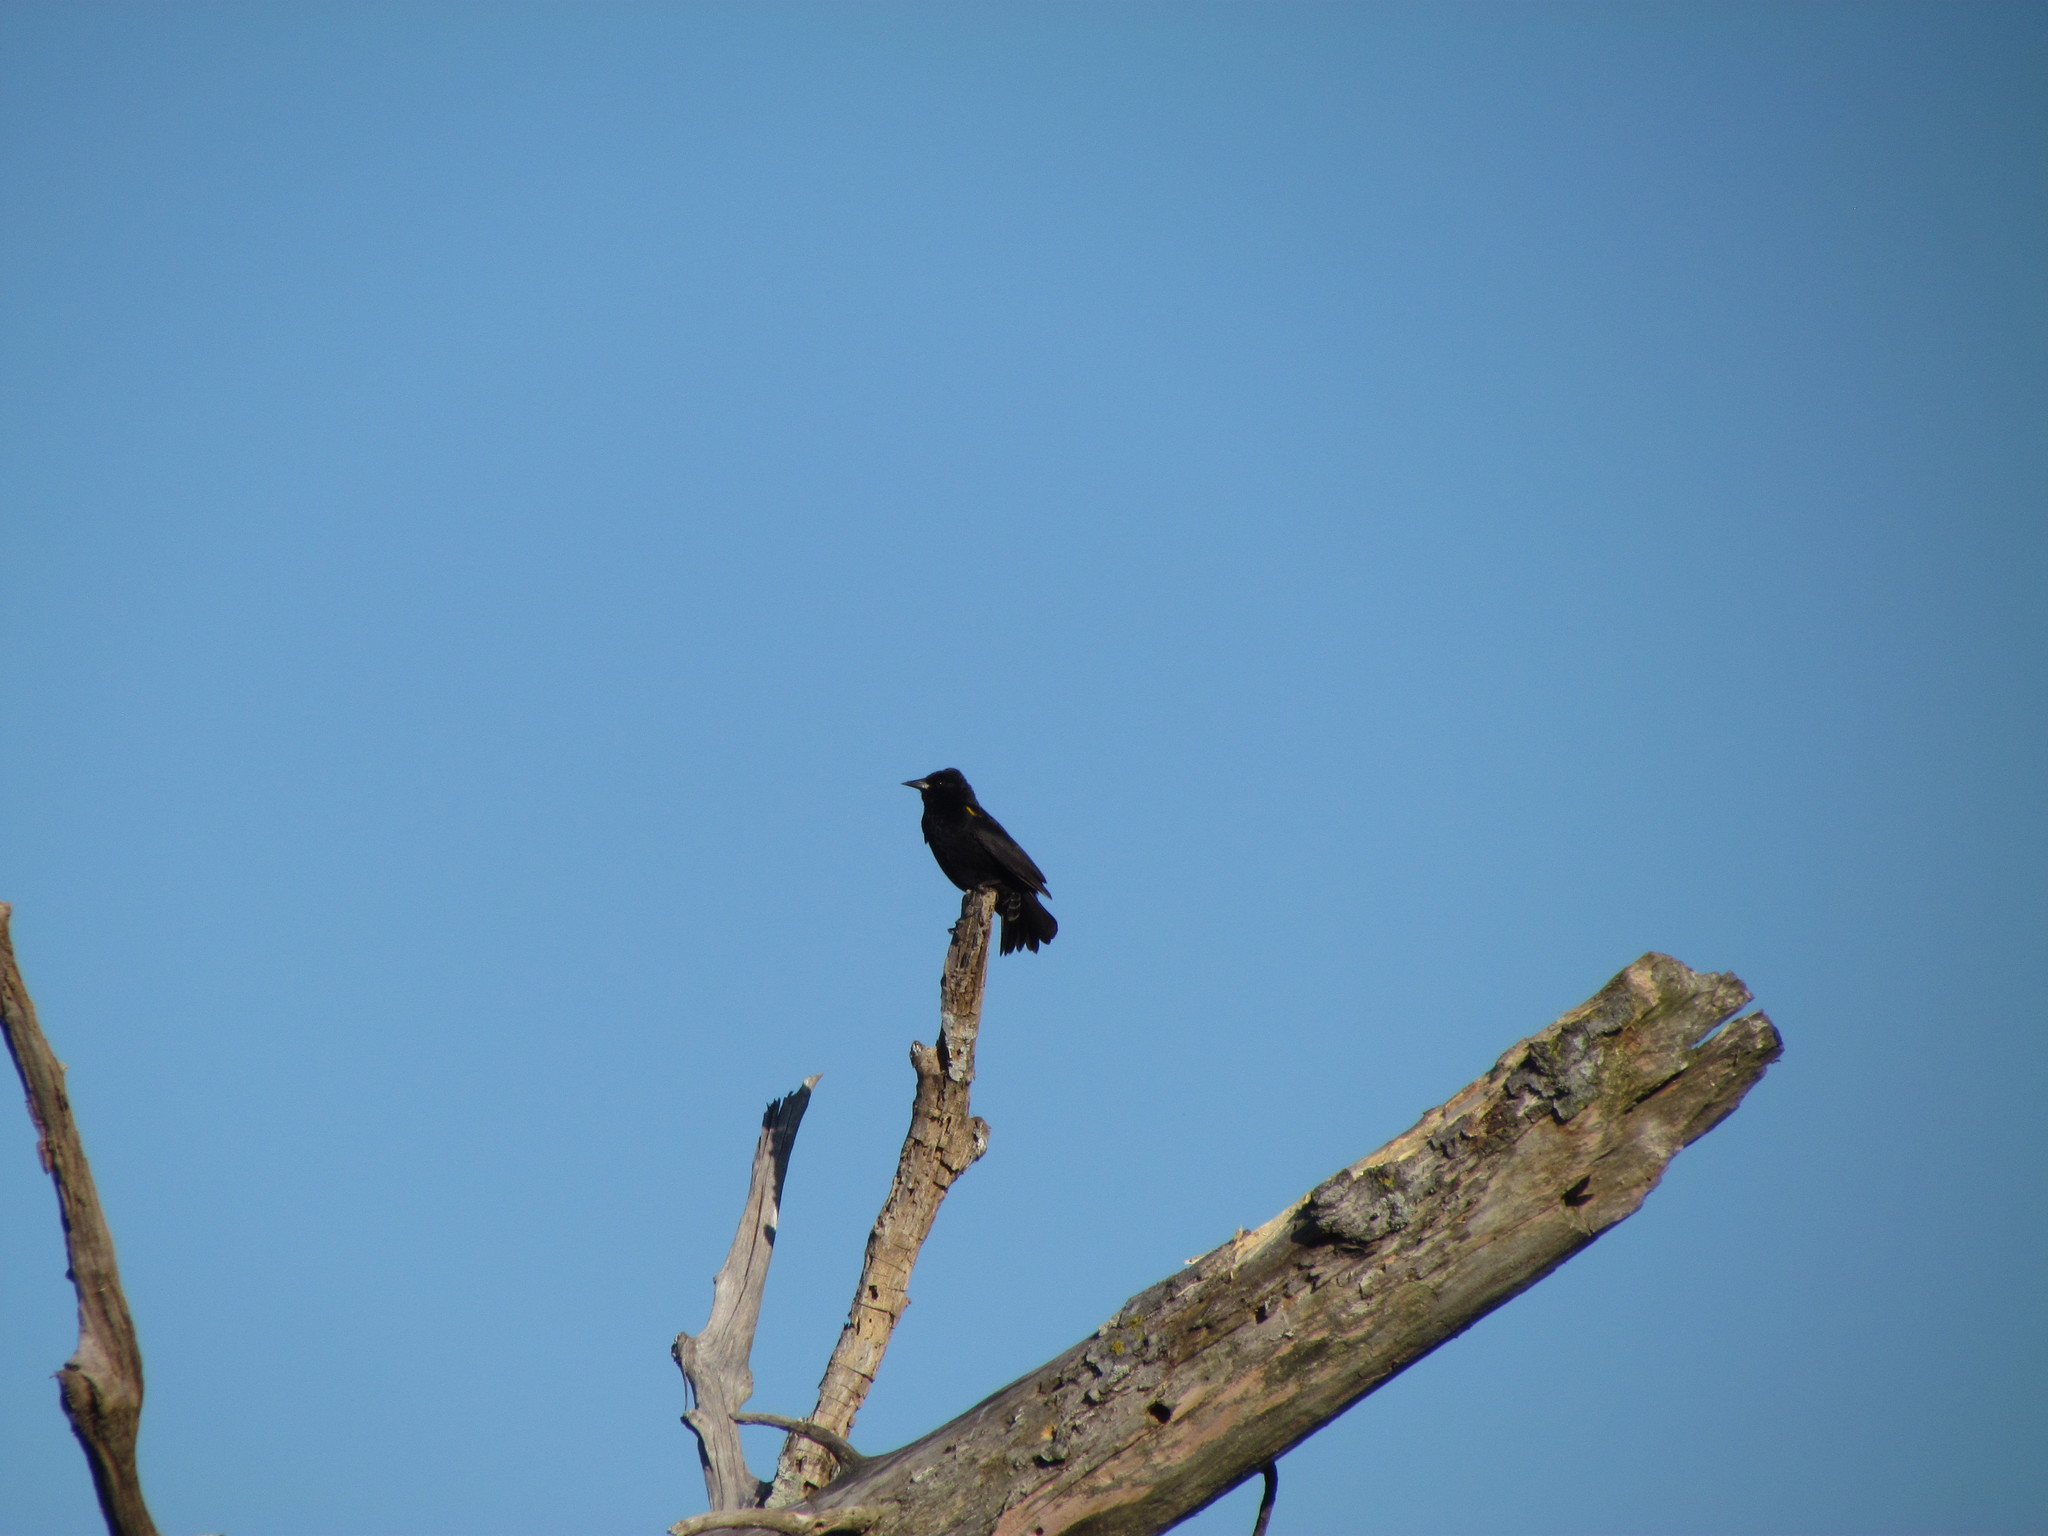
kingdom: Animalia
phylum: Chordata
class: Aves
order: Passeriformes
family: Icteridae
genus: Agelasticus
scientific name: Agelasticus thilius
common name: Yellow-winged blackbird
